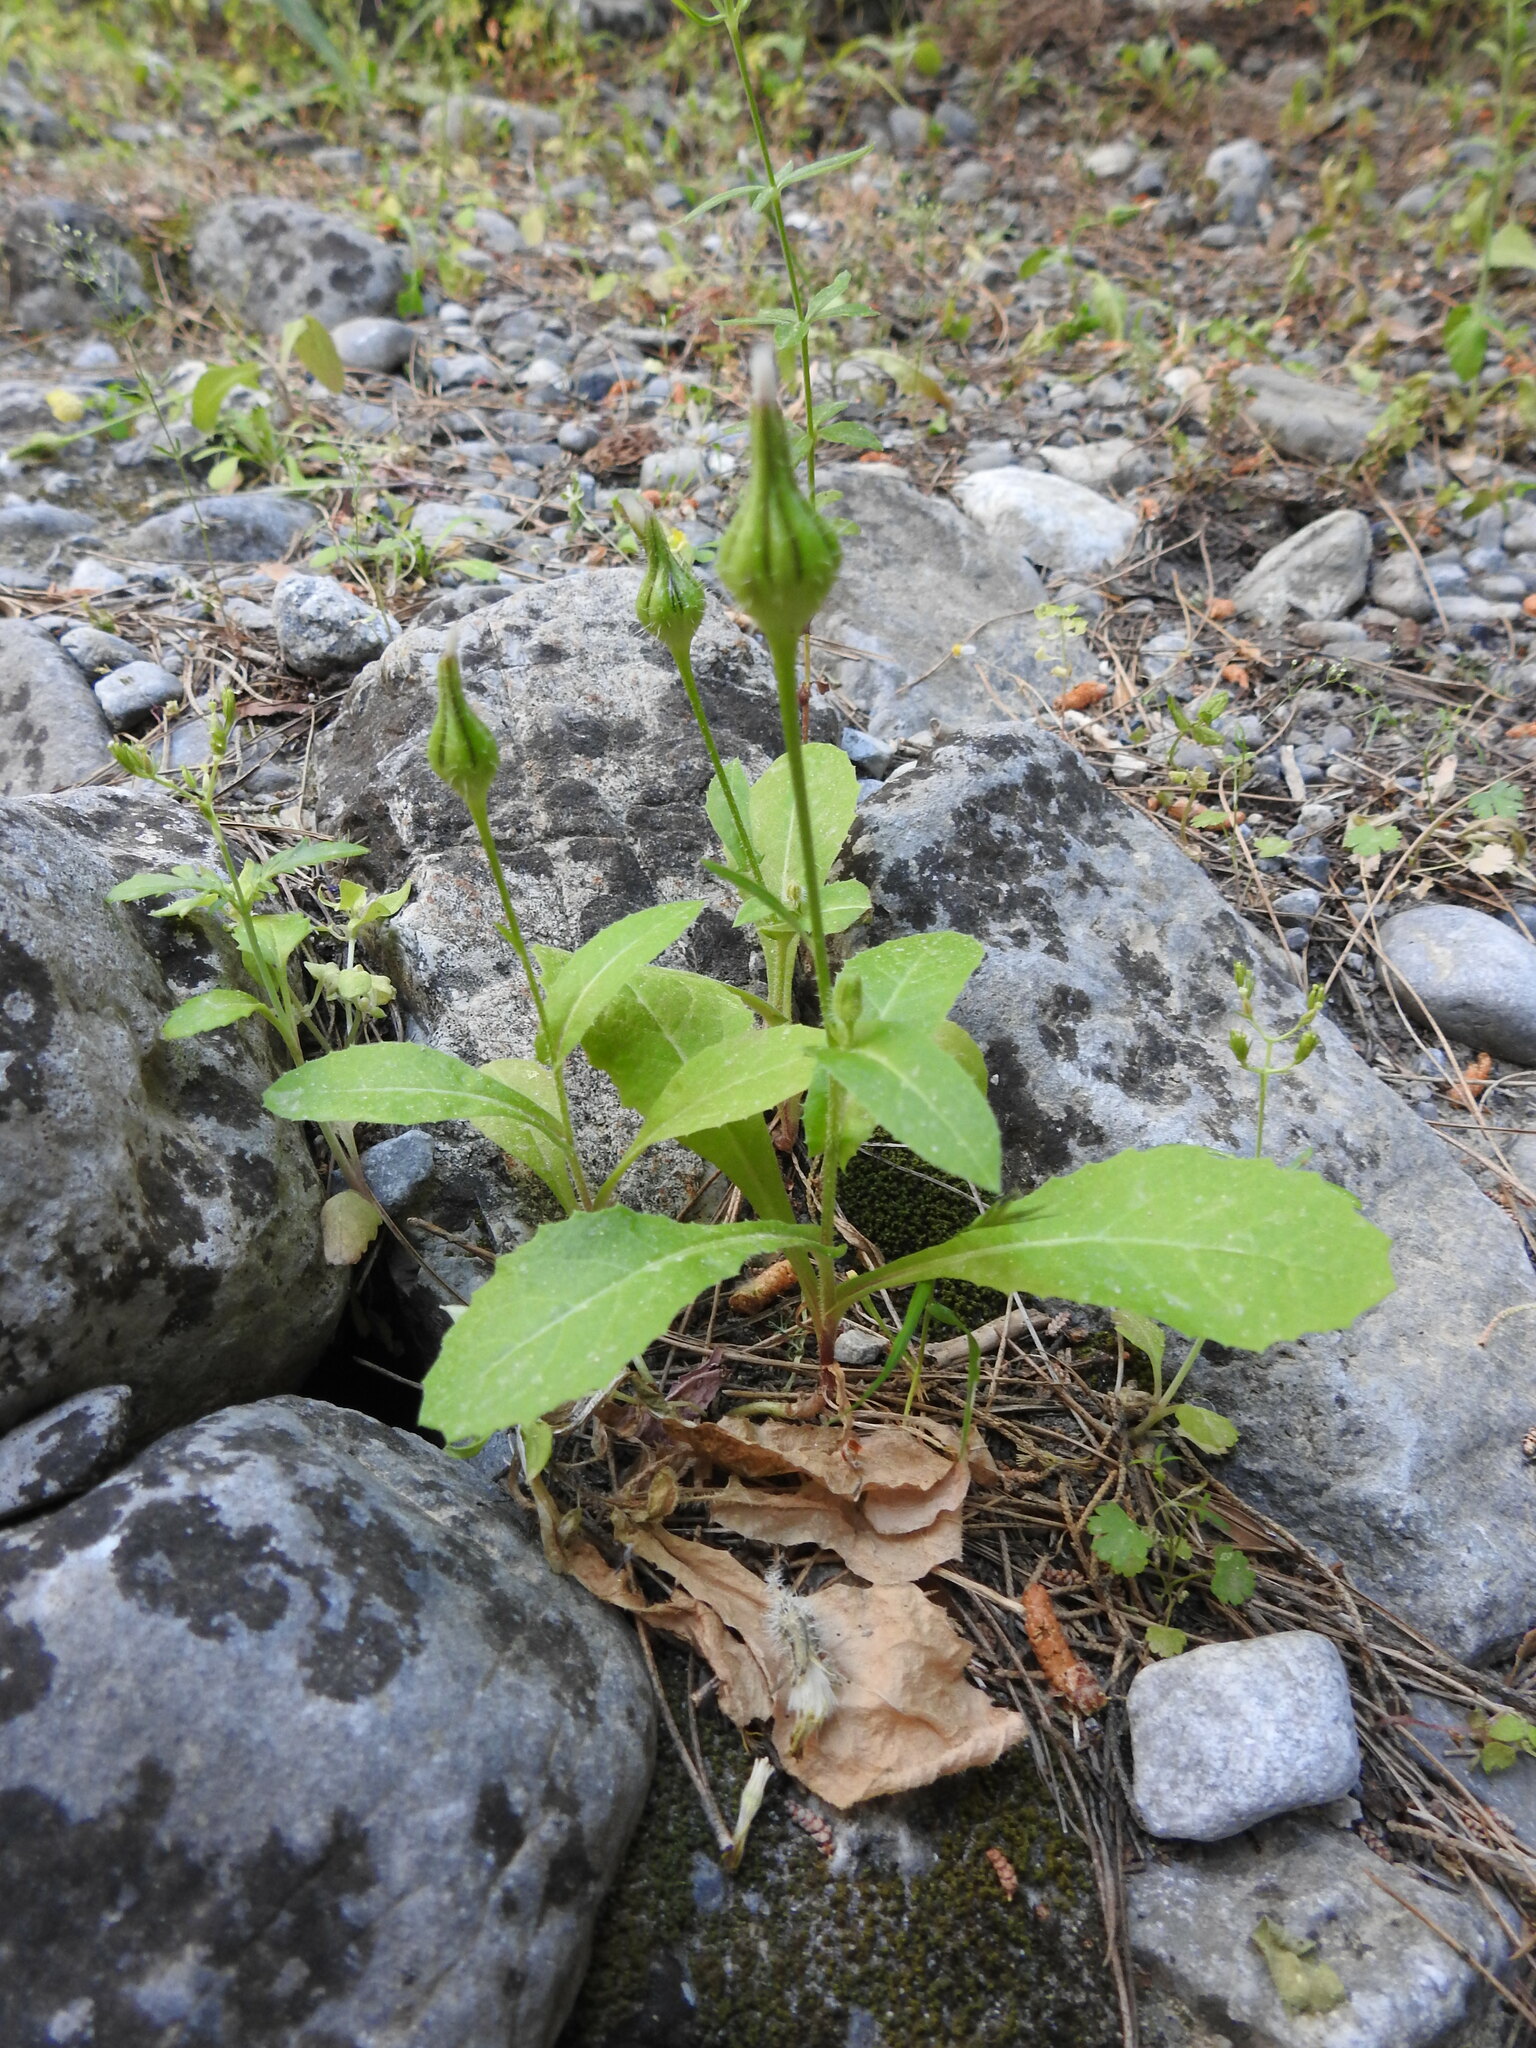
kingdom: Plantae
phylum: Tracheophyta
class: Magnoliopsida
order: Asterales
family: Asteraceae
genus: Urospermum
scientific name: Urospermum picroides
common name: False hawkbit
